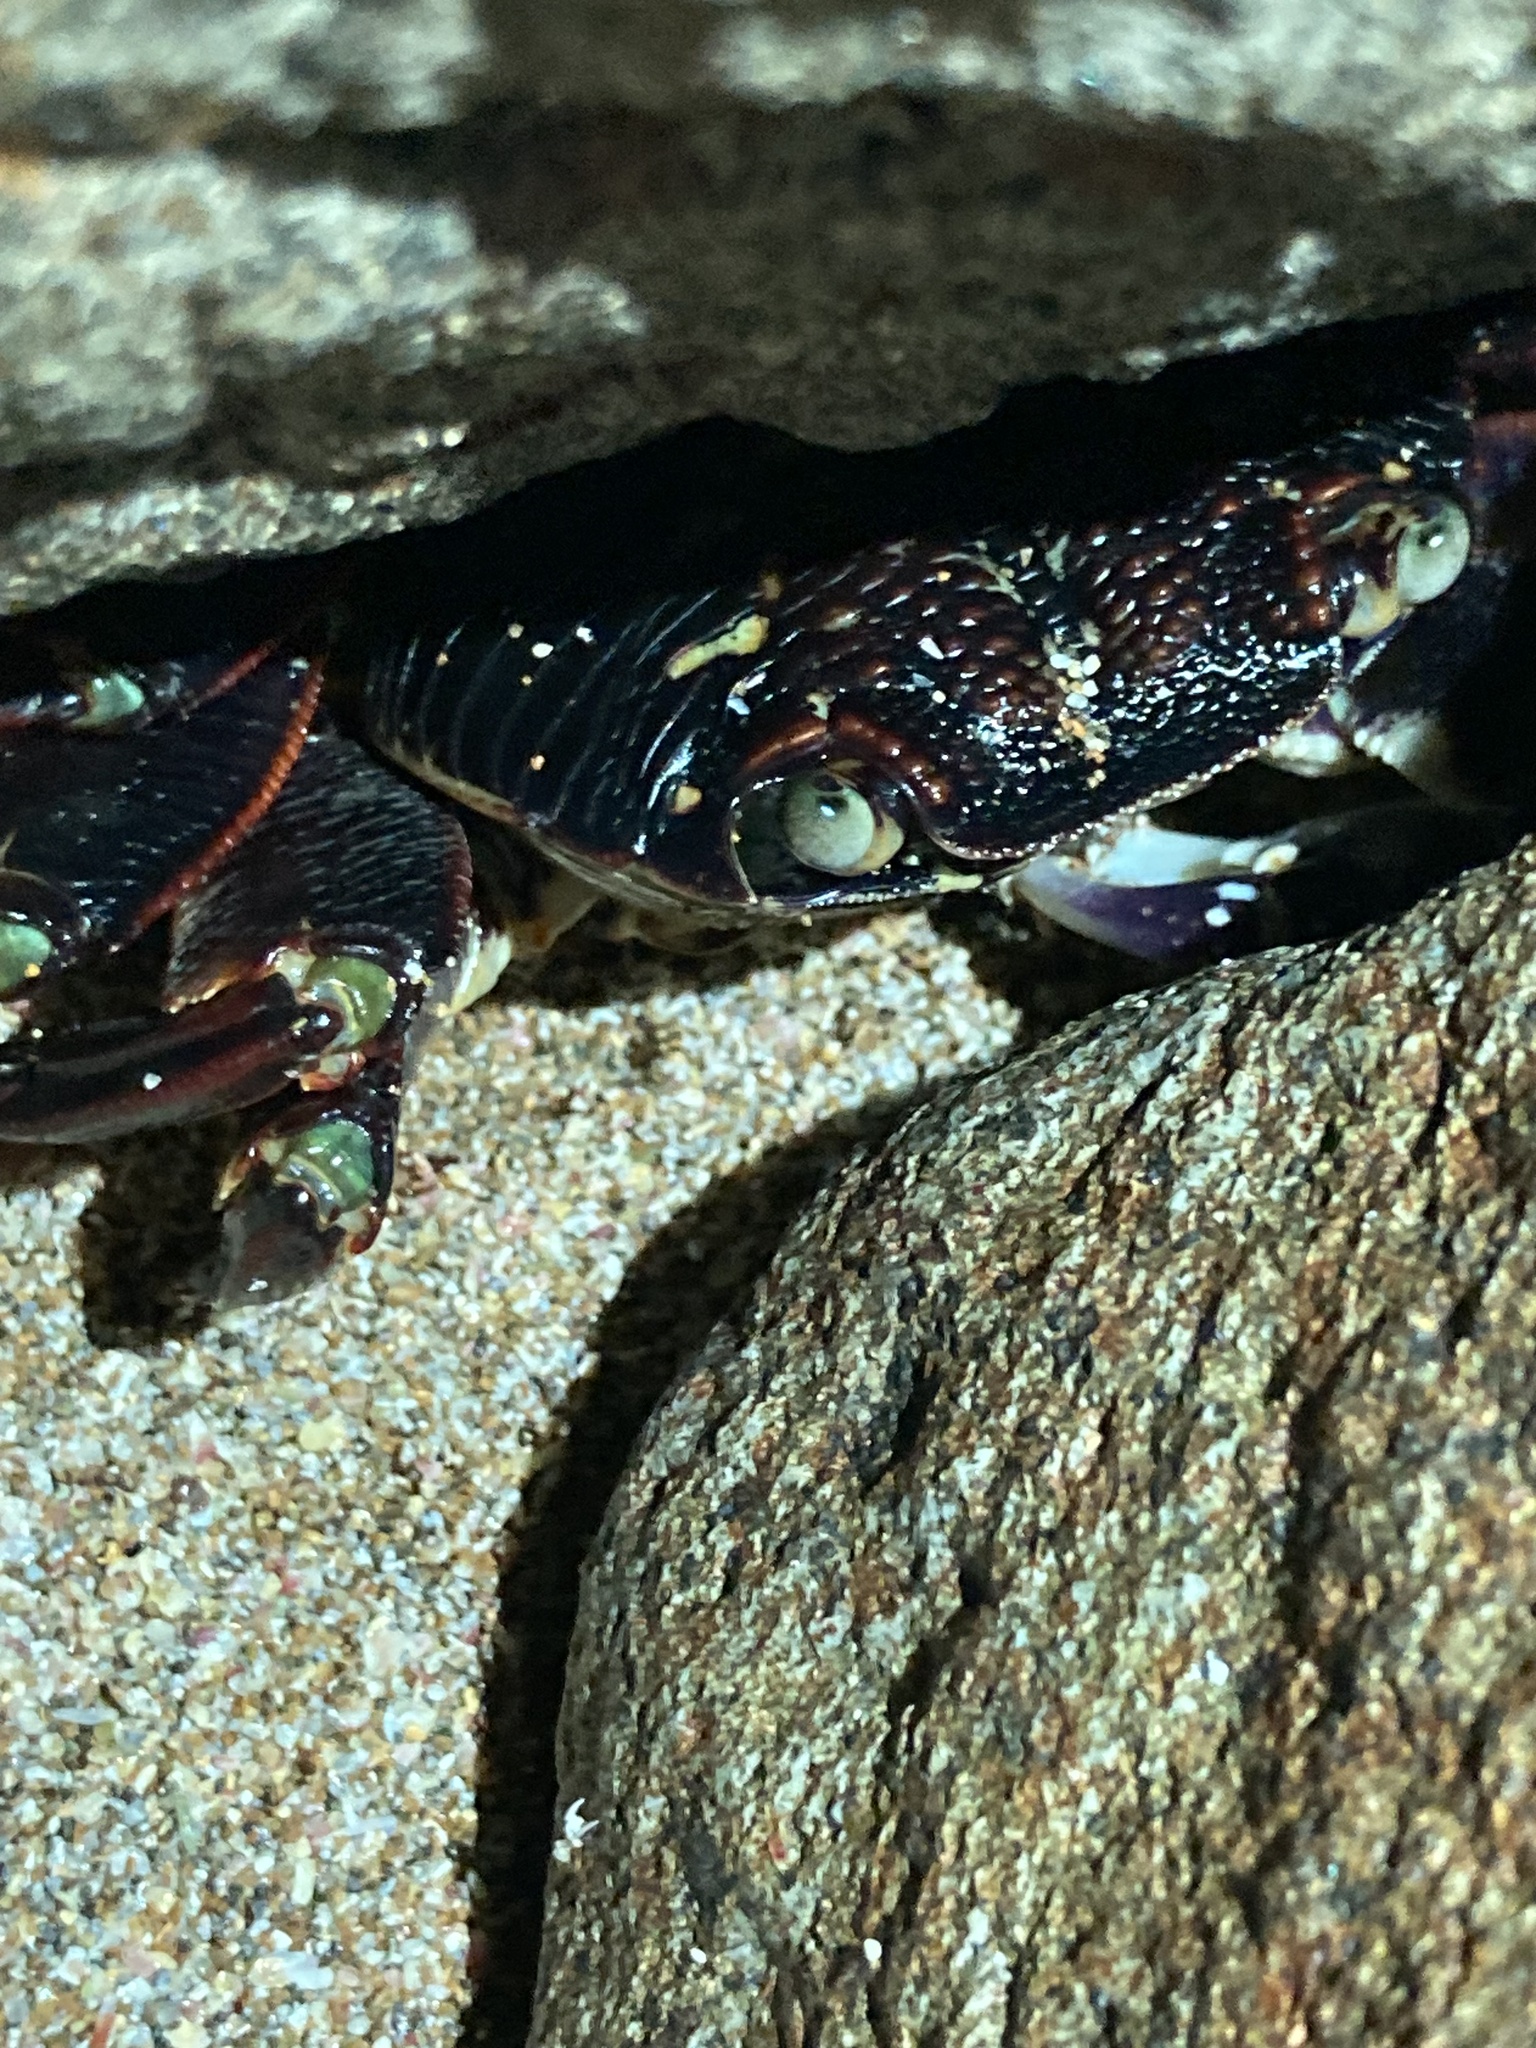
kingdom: Animalia
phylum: Arthropoda
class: Malacostraca
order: Decapoda
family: Grapsidae
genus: Leptograpsus
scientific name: Leptograpsus variegatus
